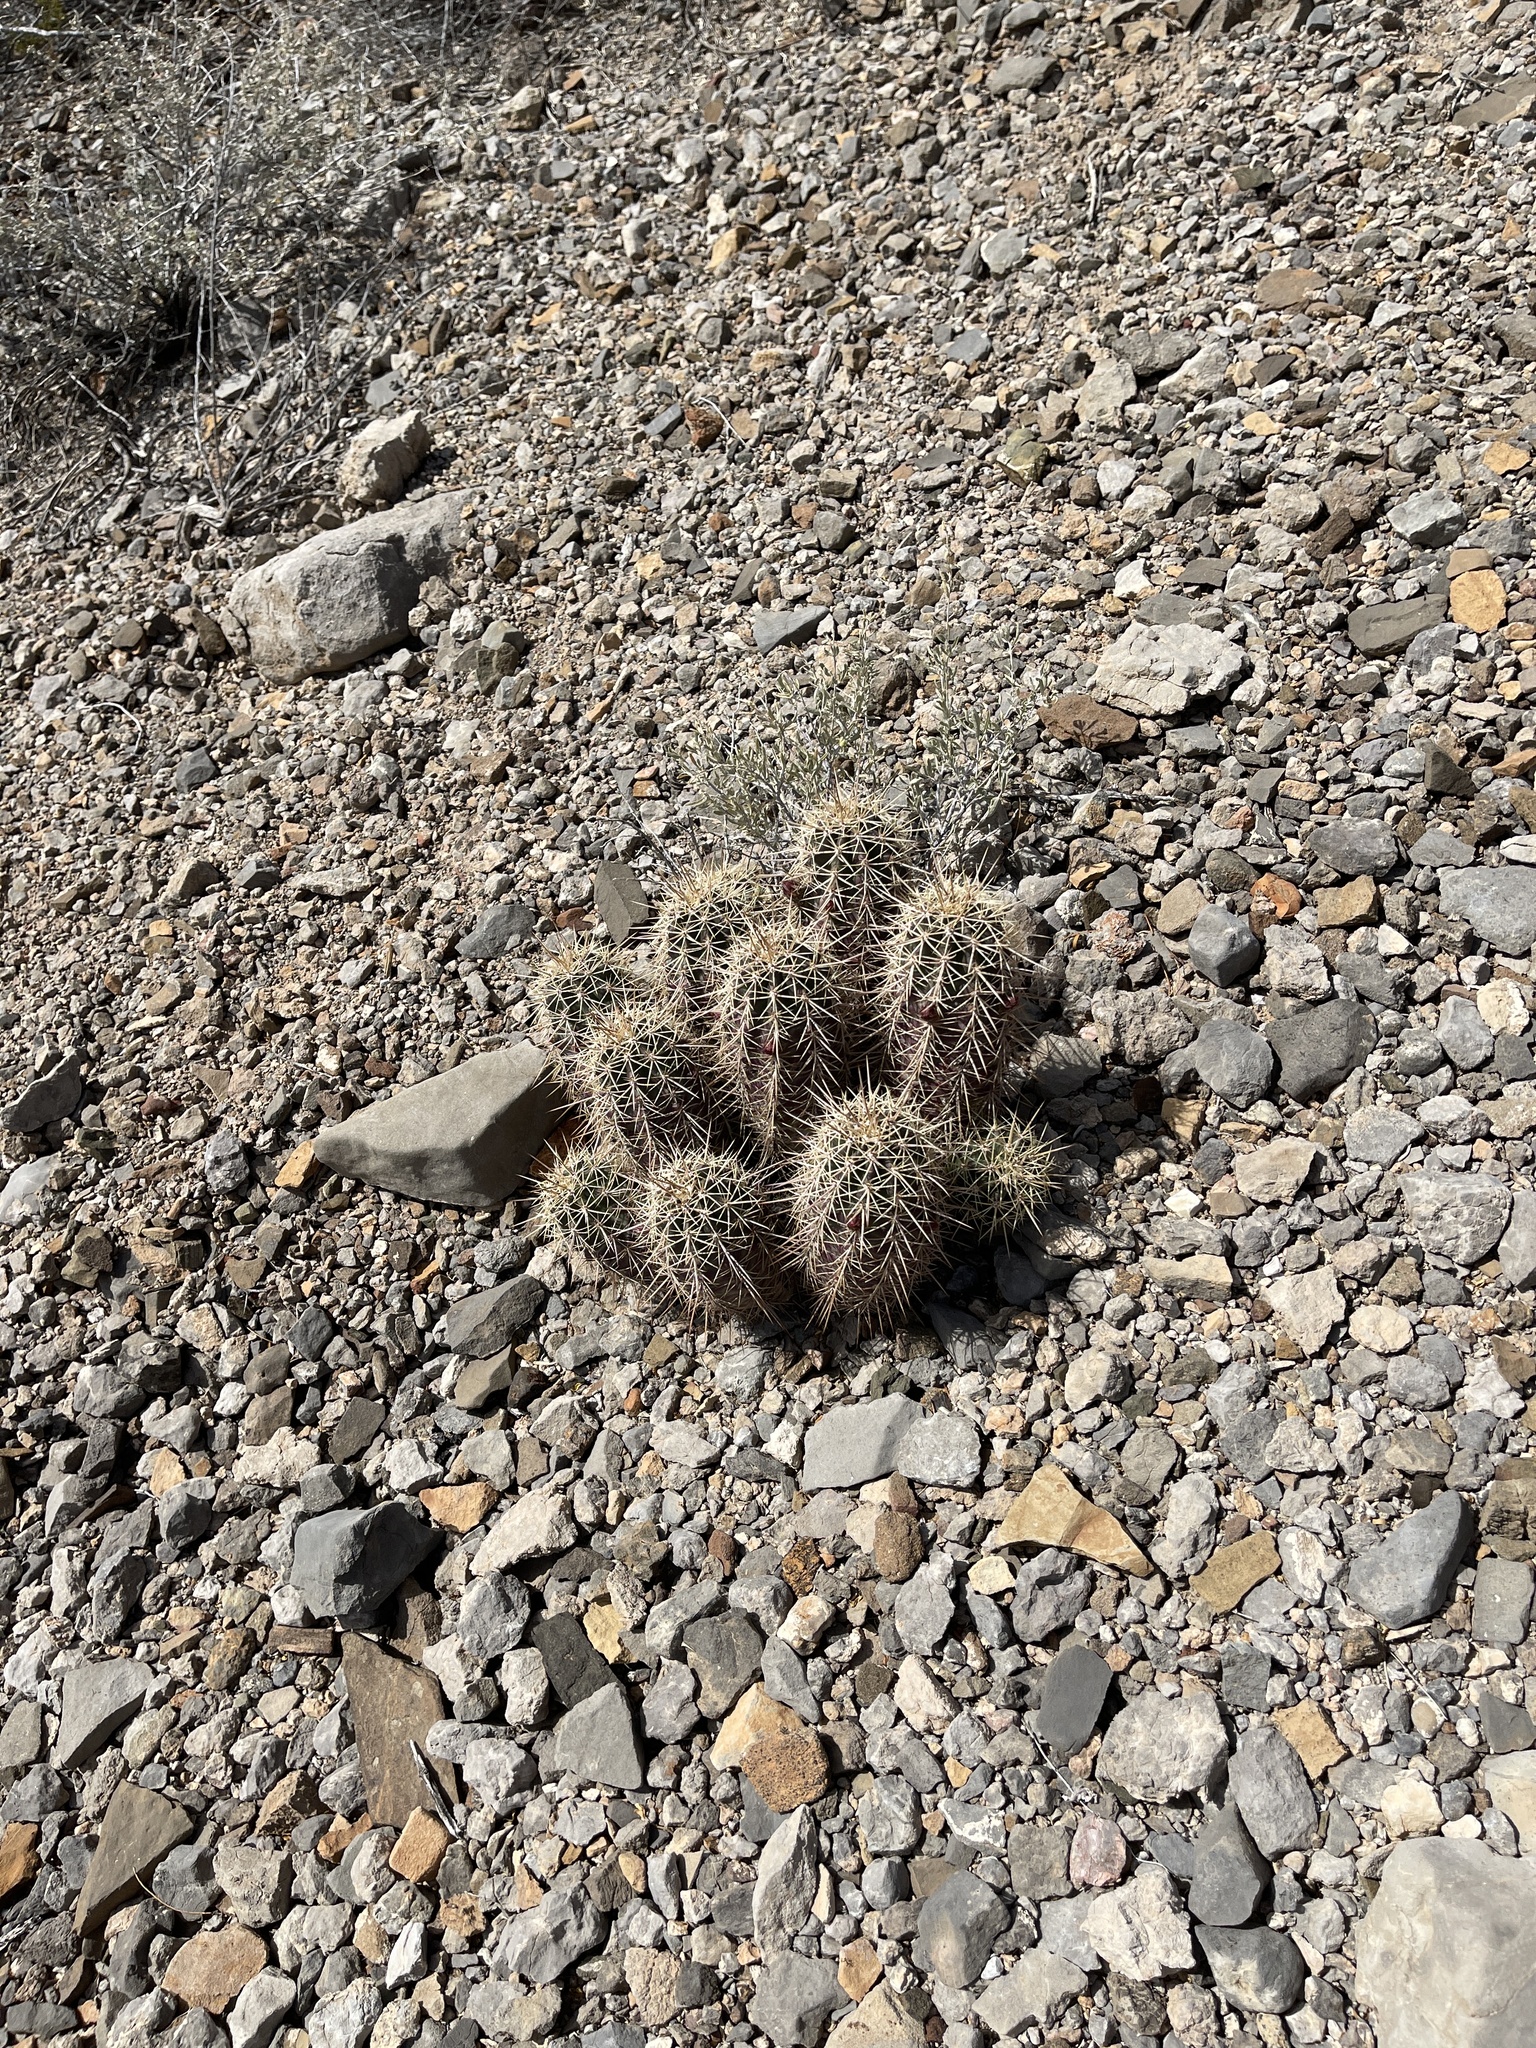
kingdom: Plantae
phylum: Tracheophyta
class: Magnoliopsida
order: Caryophyllales
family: Cactaceae
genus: Echinocereus
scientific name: Echinocereus coccineus
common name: Scarlet hedgehog cactus
